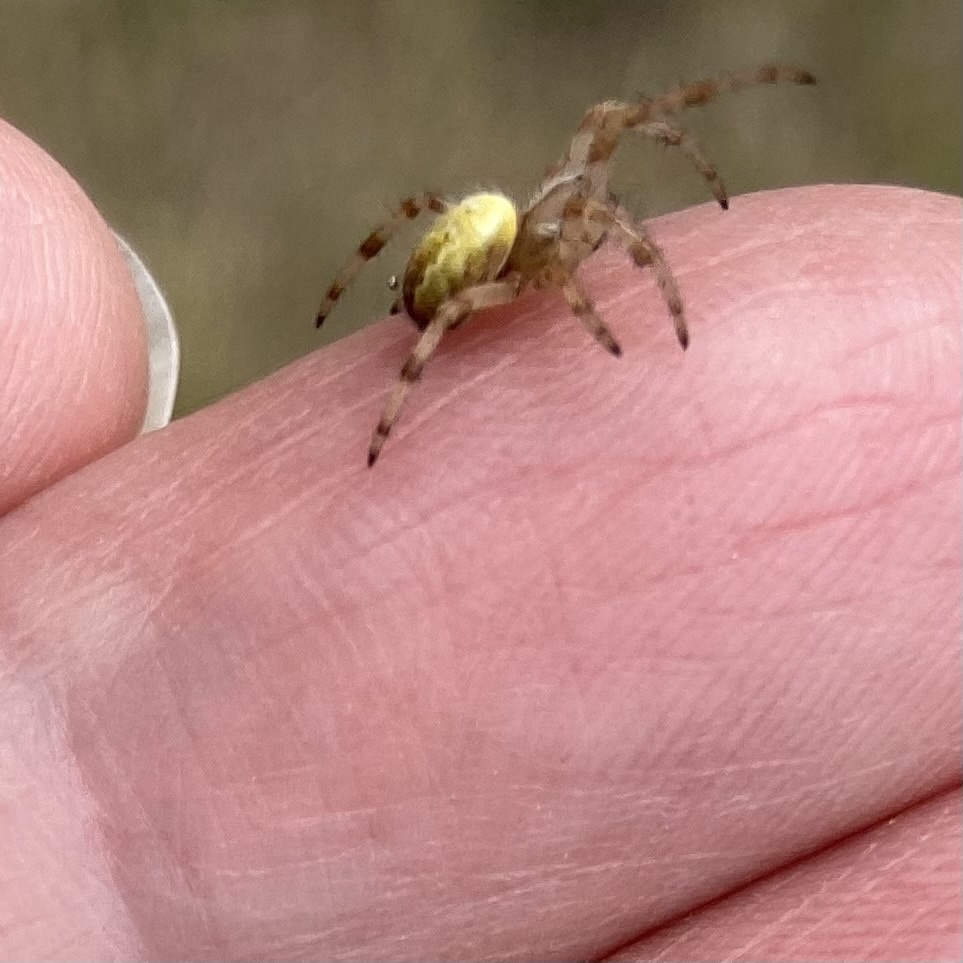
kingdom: Animalia
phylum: Arthropoda
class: Arachnida
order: Araneae
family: Araneidae
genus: Araneus
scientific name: Araneus quadratus
